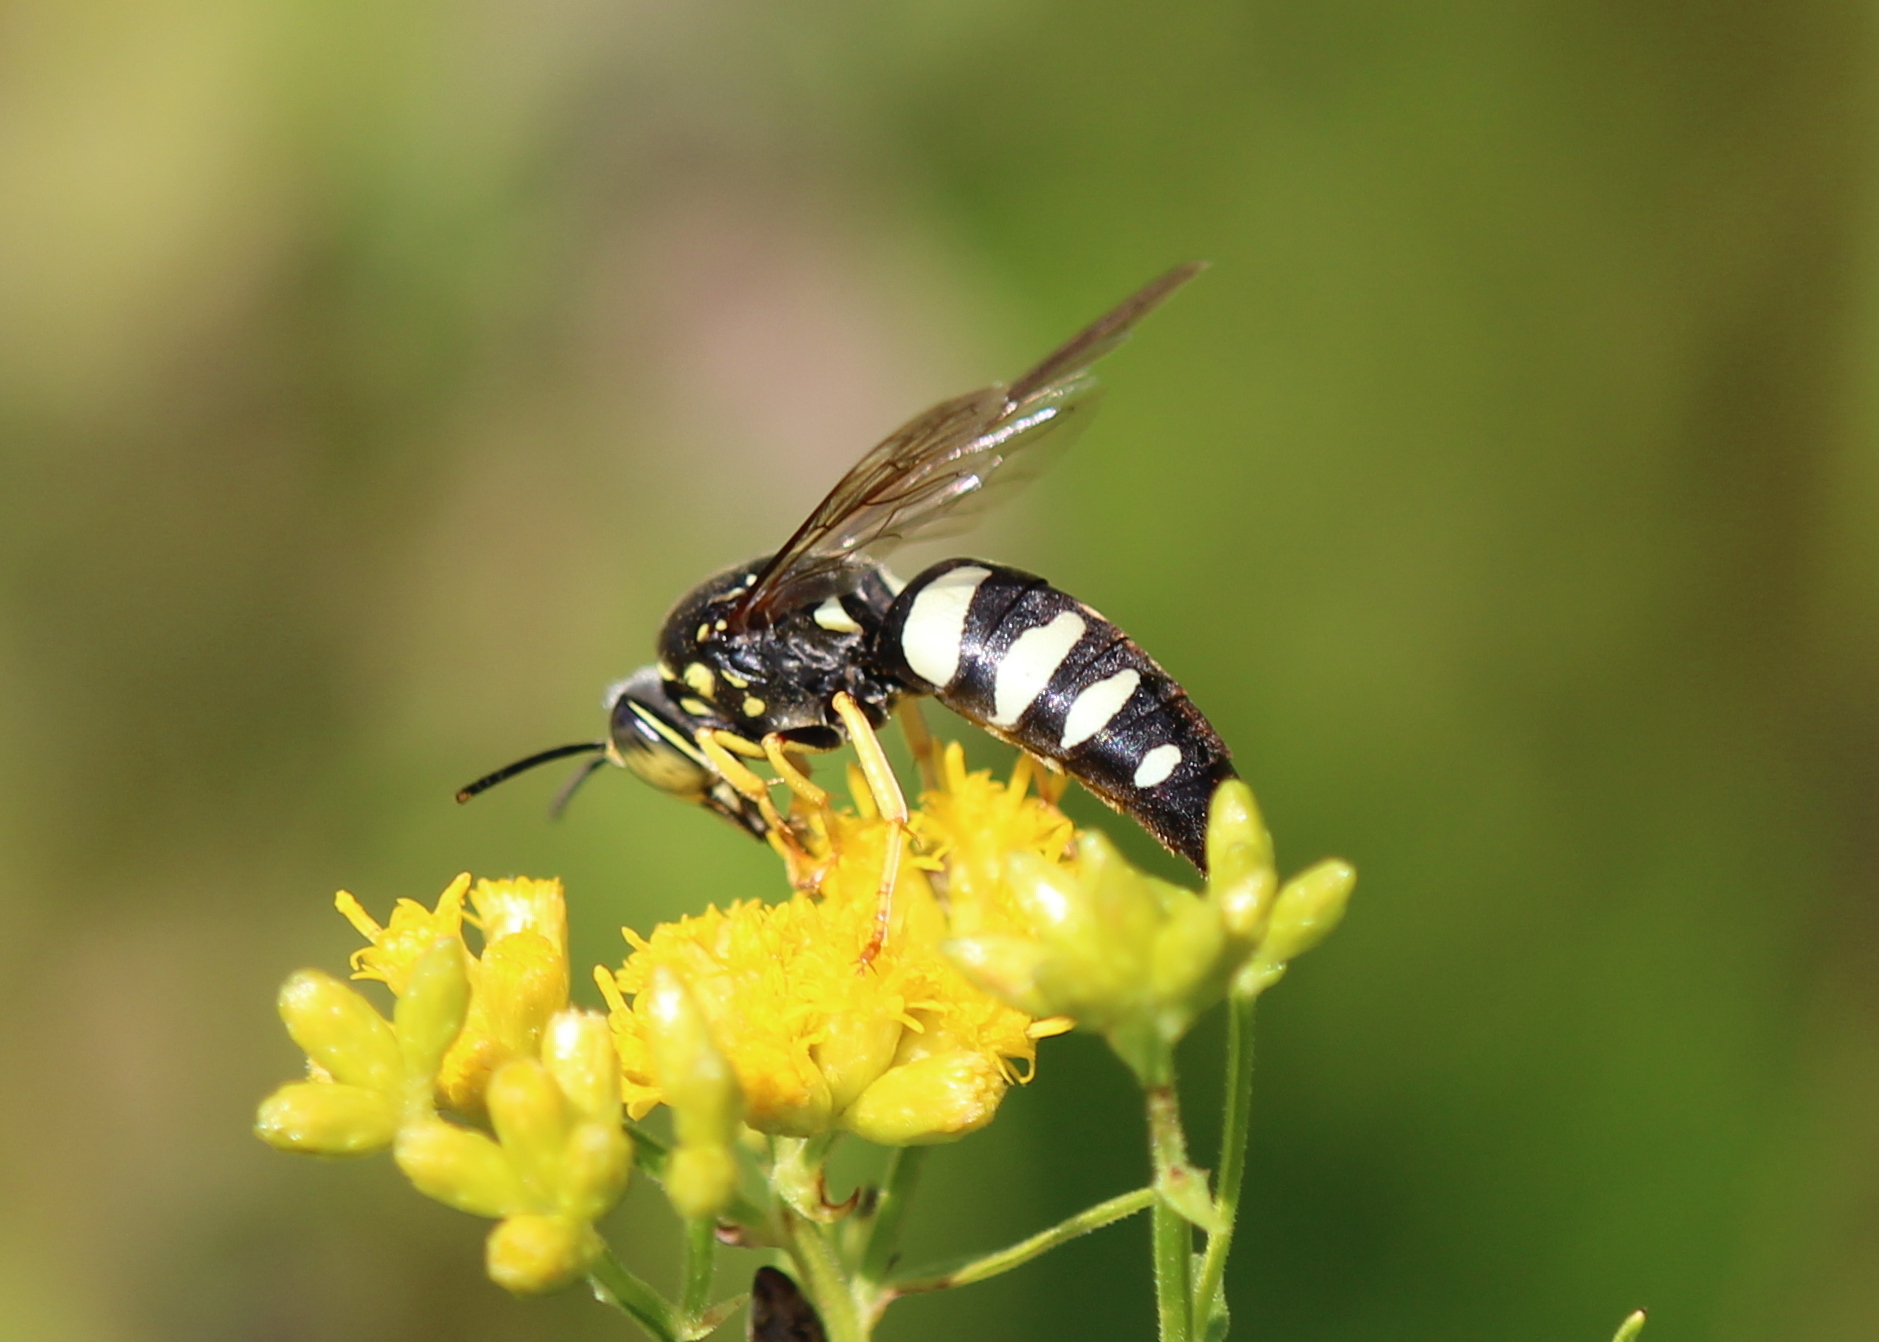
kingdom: Animalia
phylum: Arthropoda
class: Insecta
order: Hymenoptera
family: Crabronidae
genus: Bicyrtes
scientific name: Bicyrtes quadrifasciatus
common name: Four-banded stink bug hunter wasp
